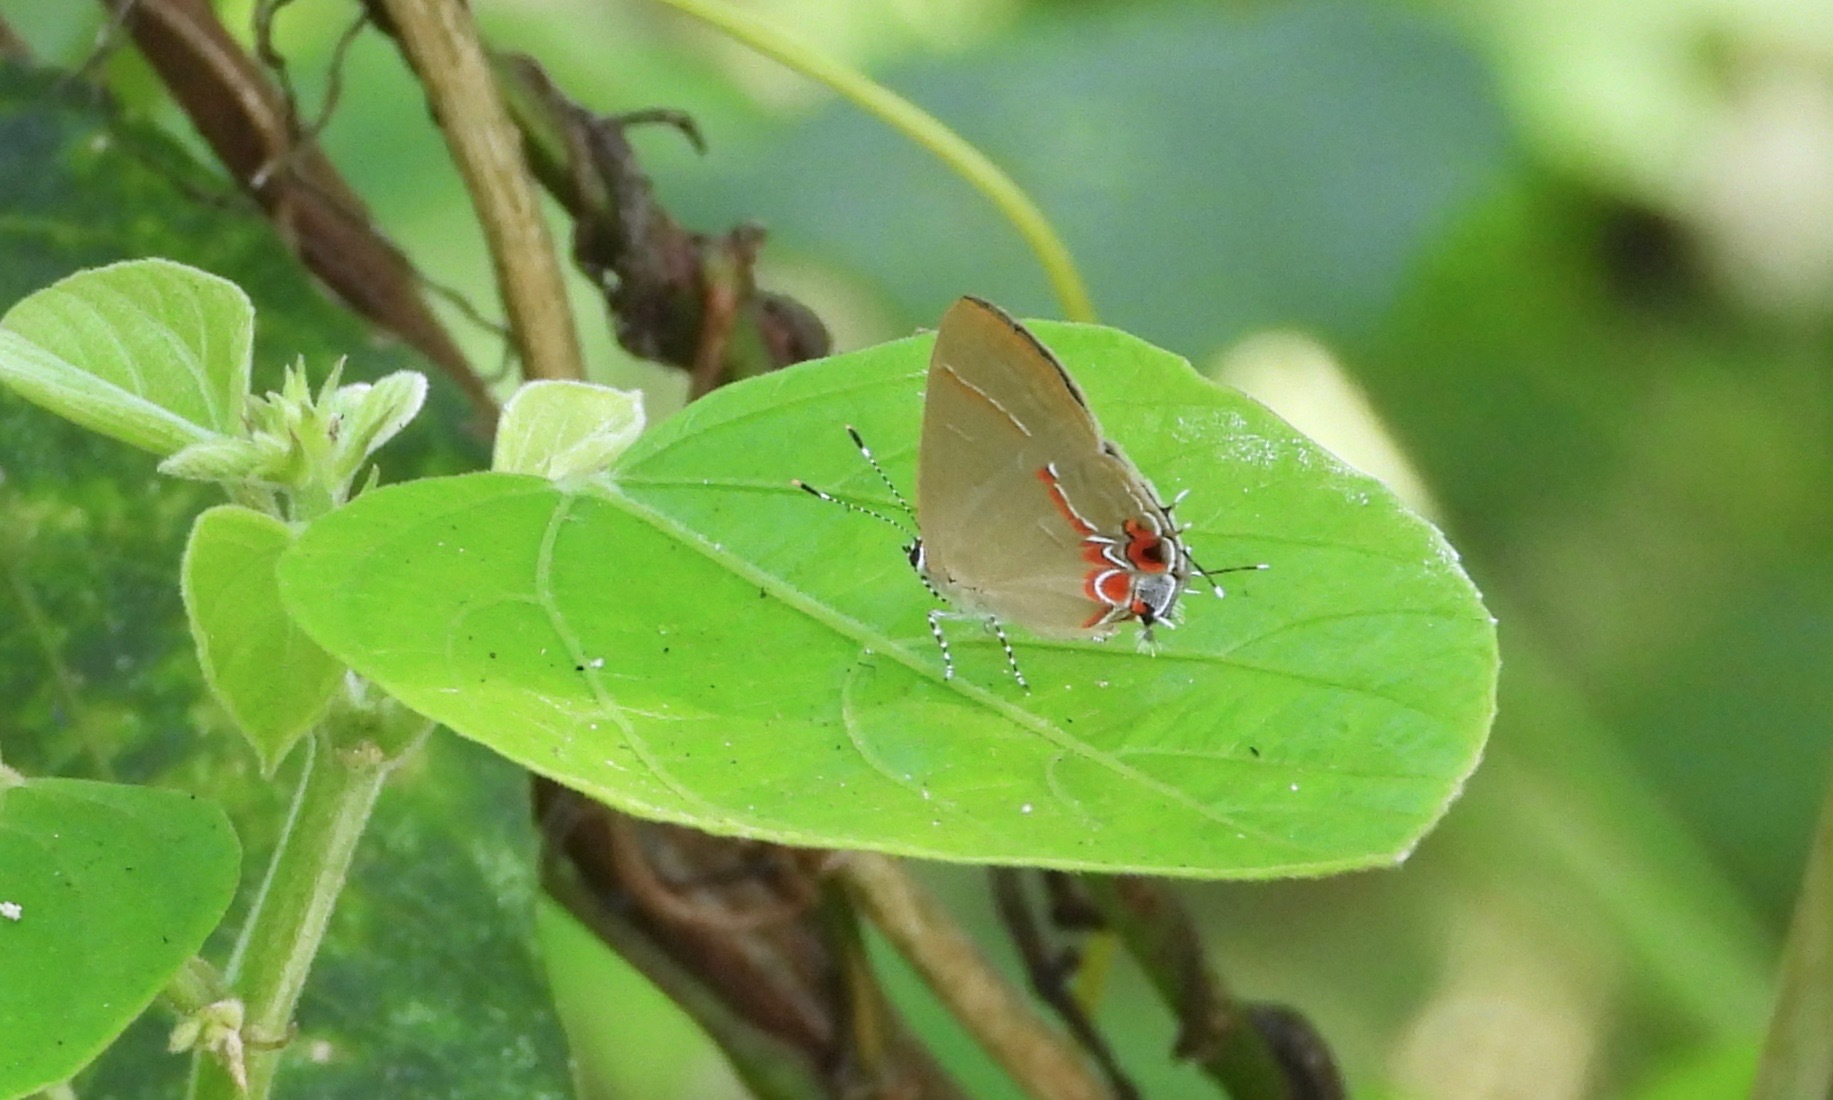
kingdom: Animalia
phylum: Arthropoda
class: Insecta
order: Lepidoptera
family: Lycaenidae
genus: Calycopis
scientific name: Calycopis drusilla
